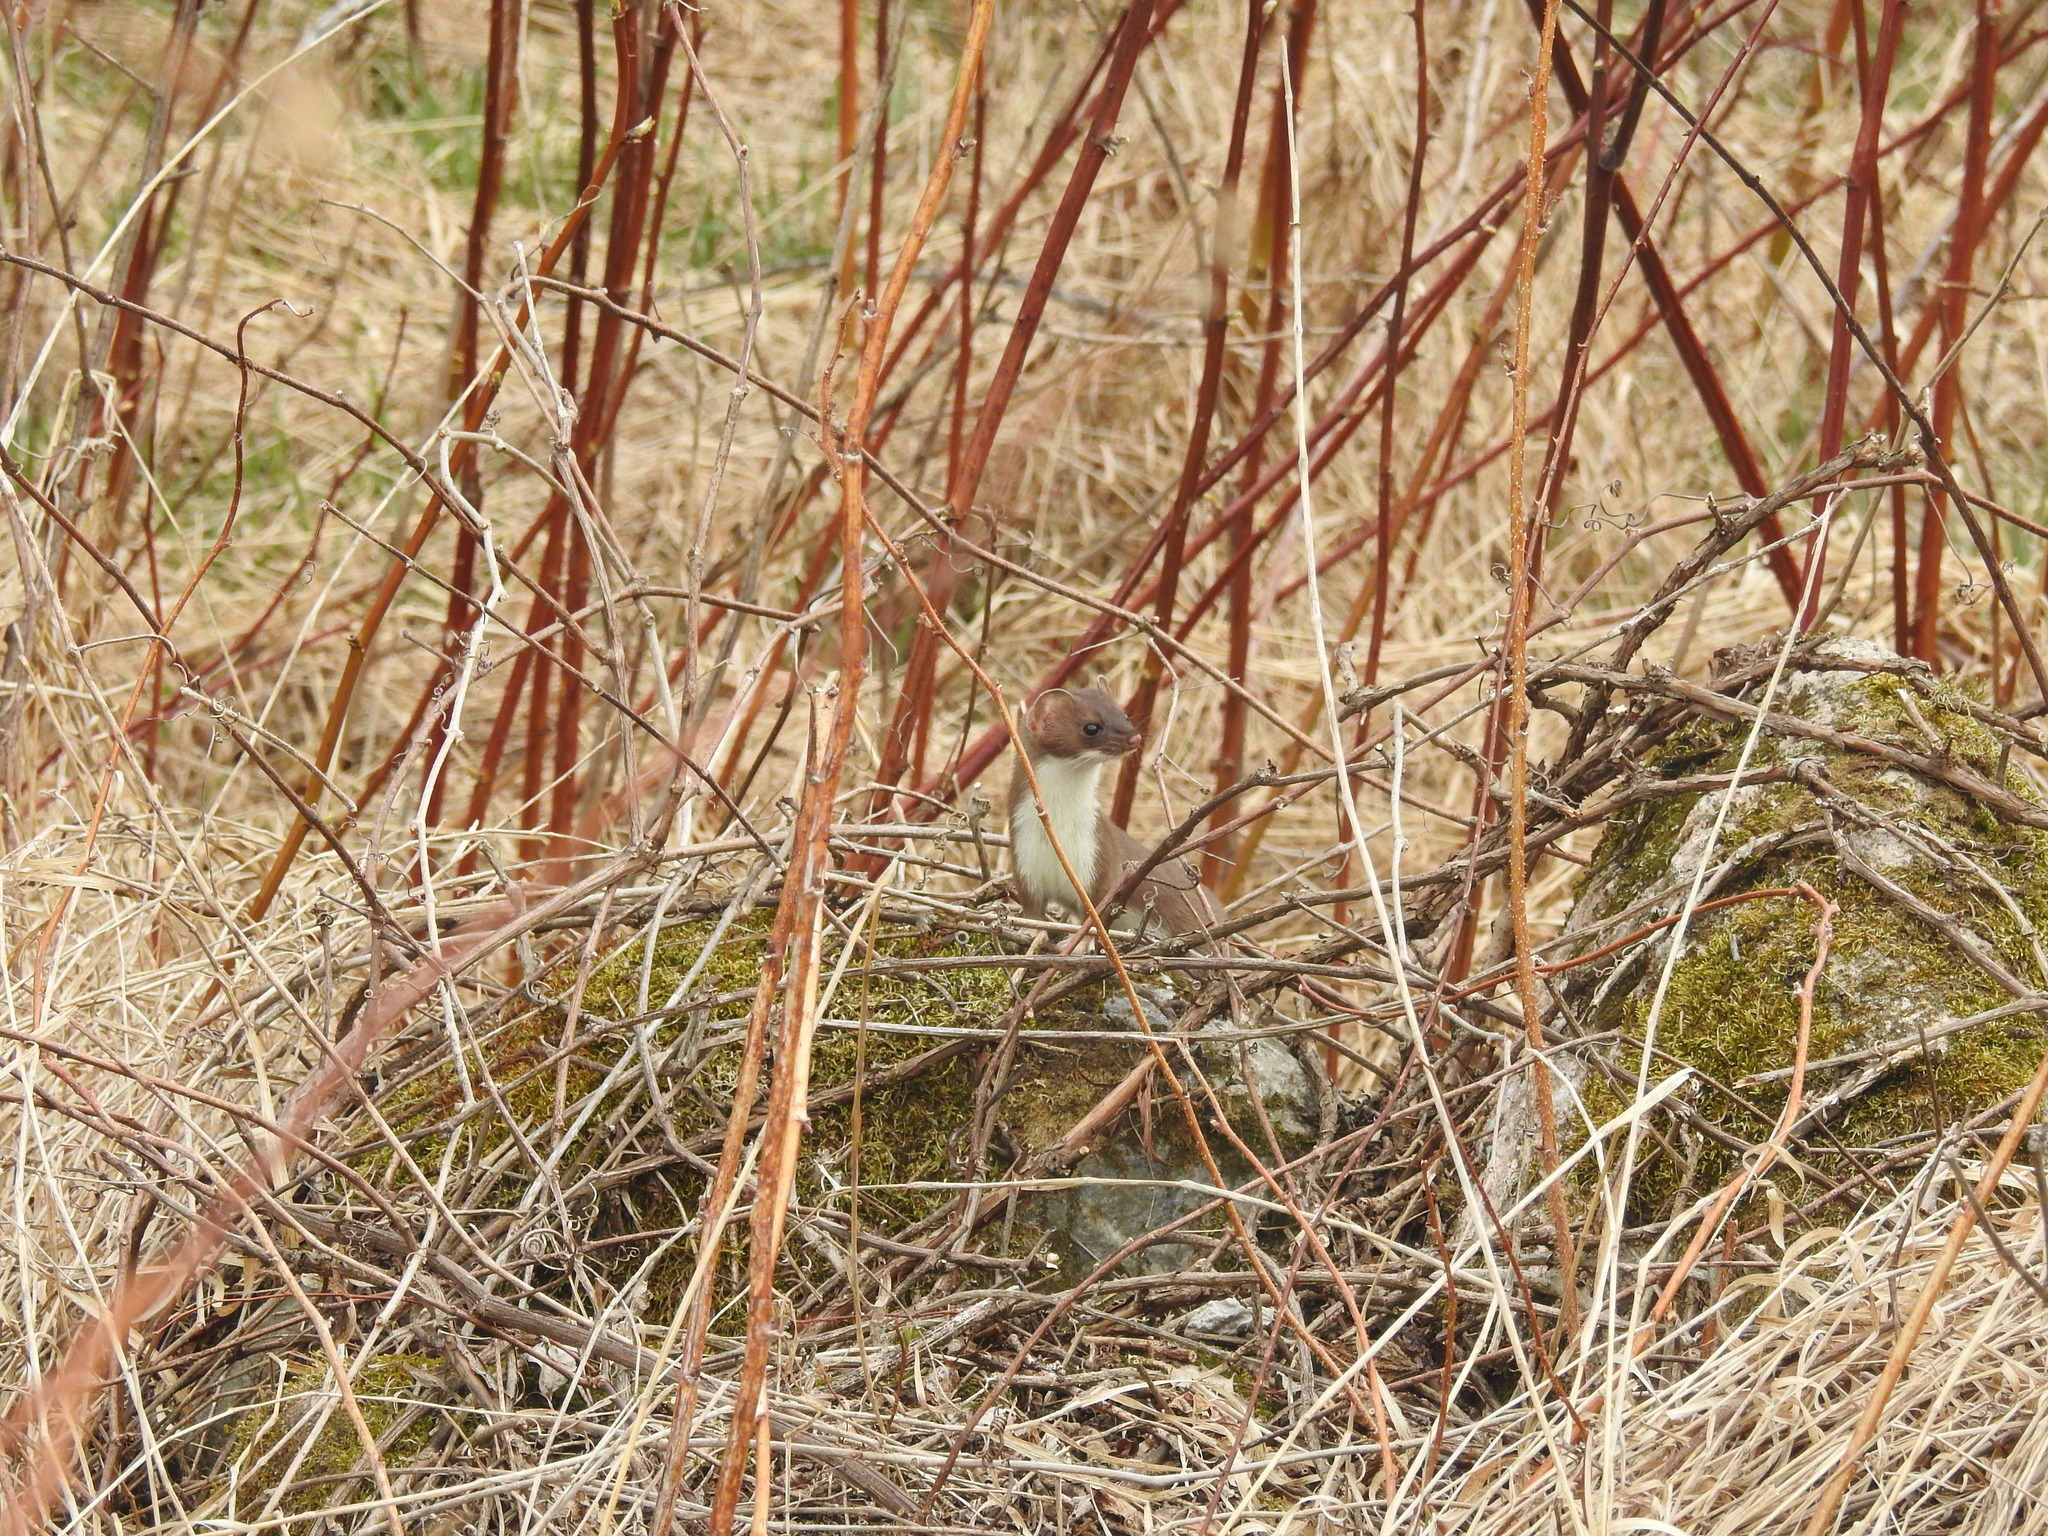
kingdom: Animalia
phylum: Chordata
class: Mammalia
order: Carnivora
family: Mustelidae
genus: Mustela
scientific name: Mustela erminea
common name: Stoat
